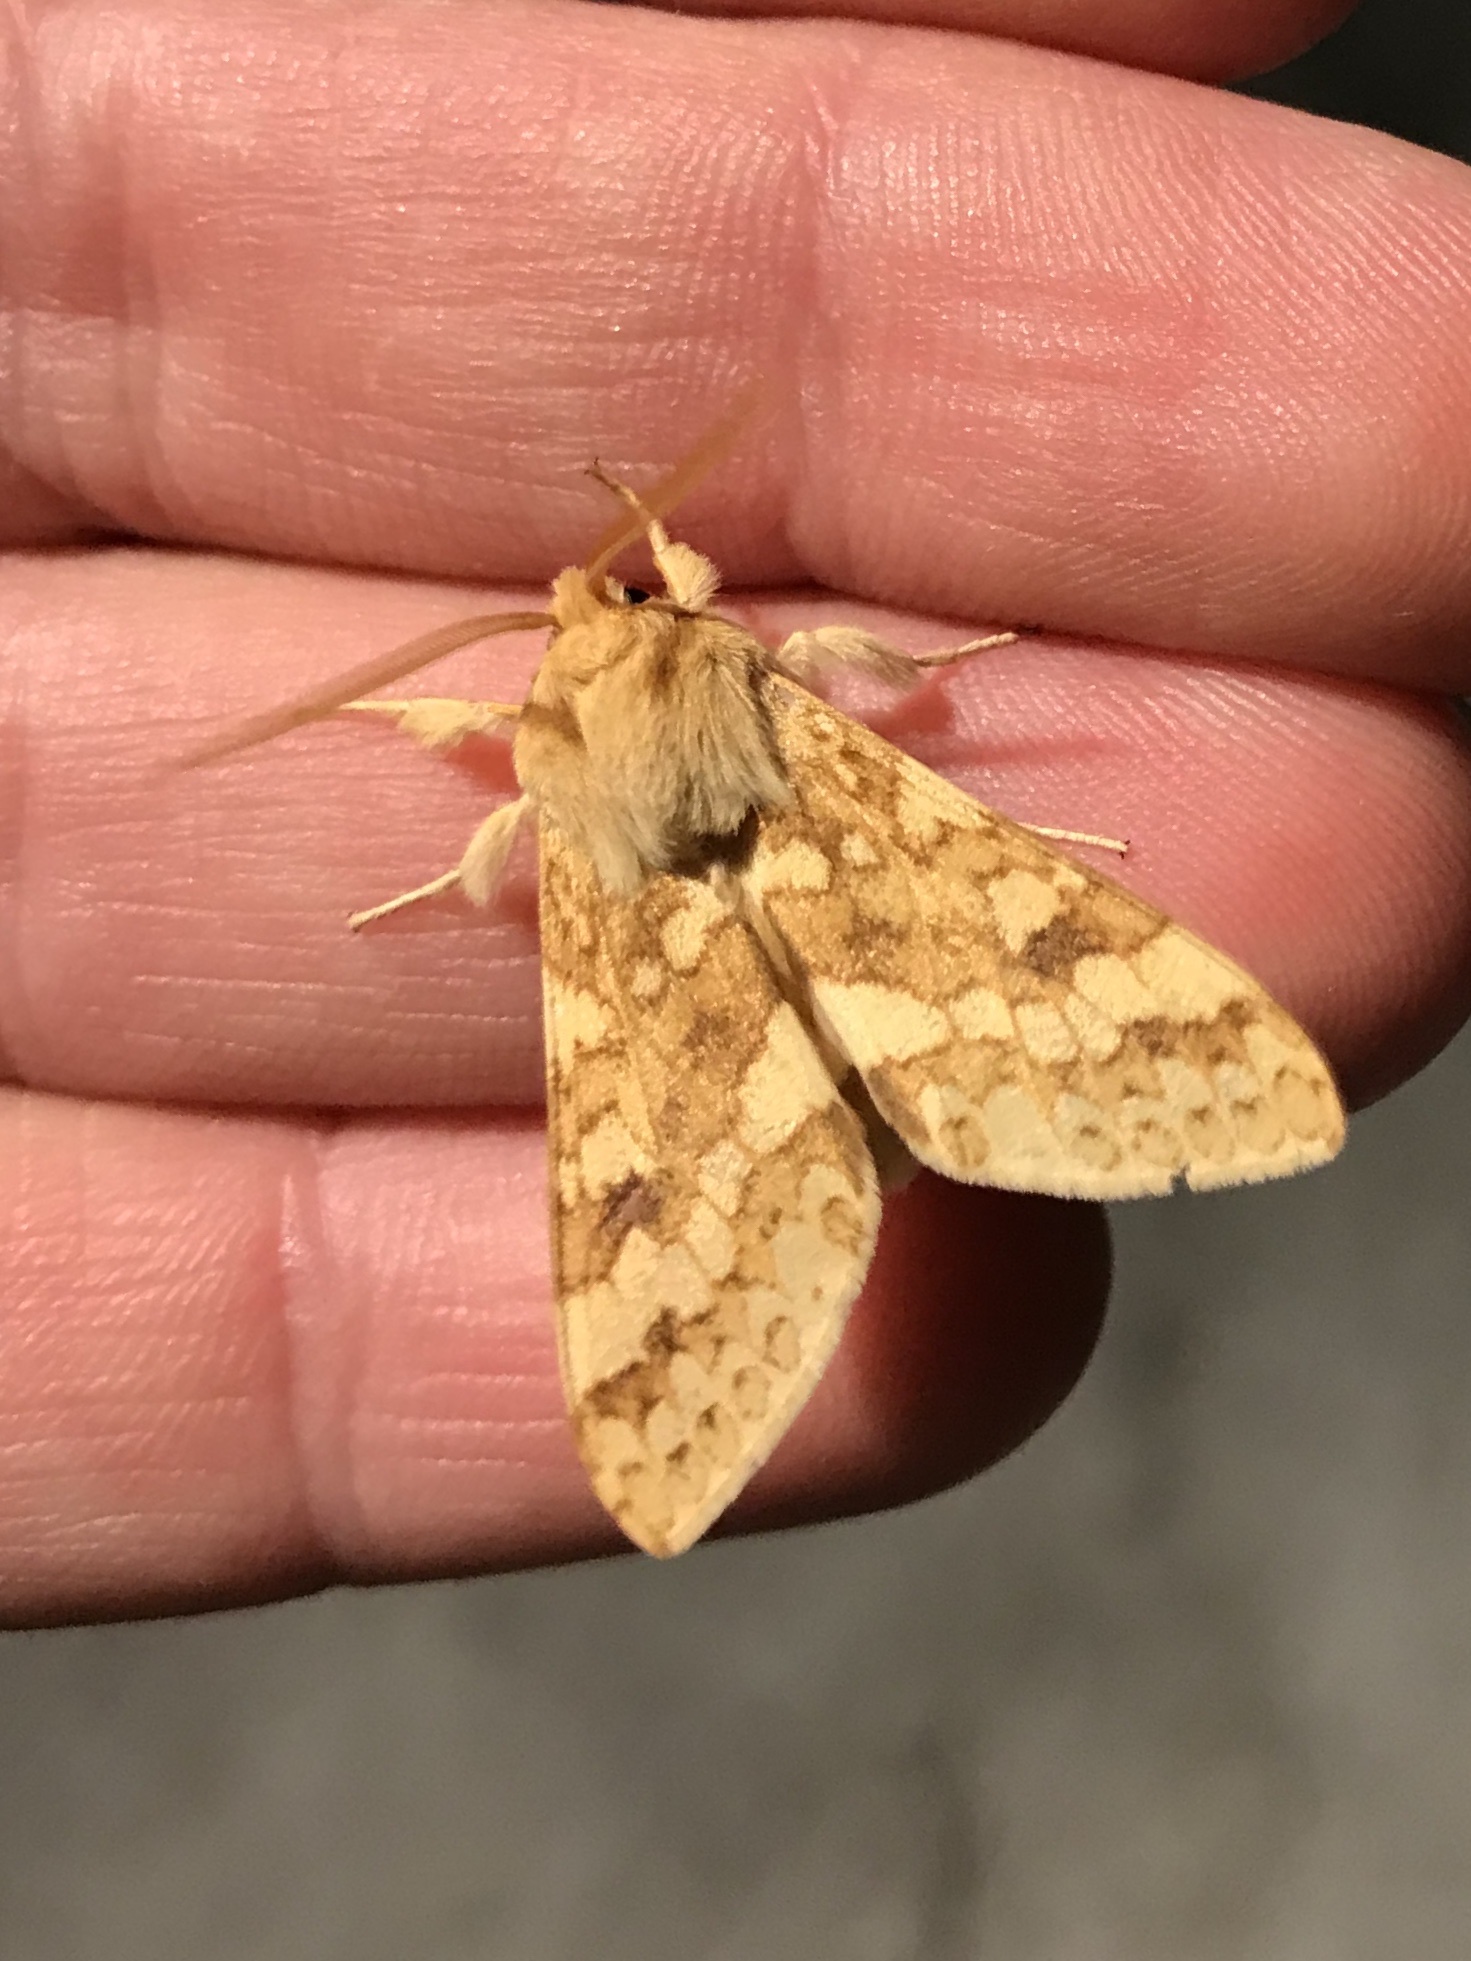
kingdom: Animalia
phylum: Arthropoda
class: Insecta
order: Lepidoptera
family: Erebidae
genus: Lophocampa
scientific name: Lophocampa maculata
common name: Spotted tussock moth
